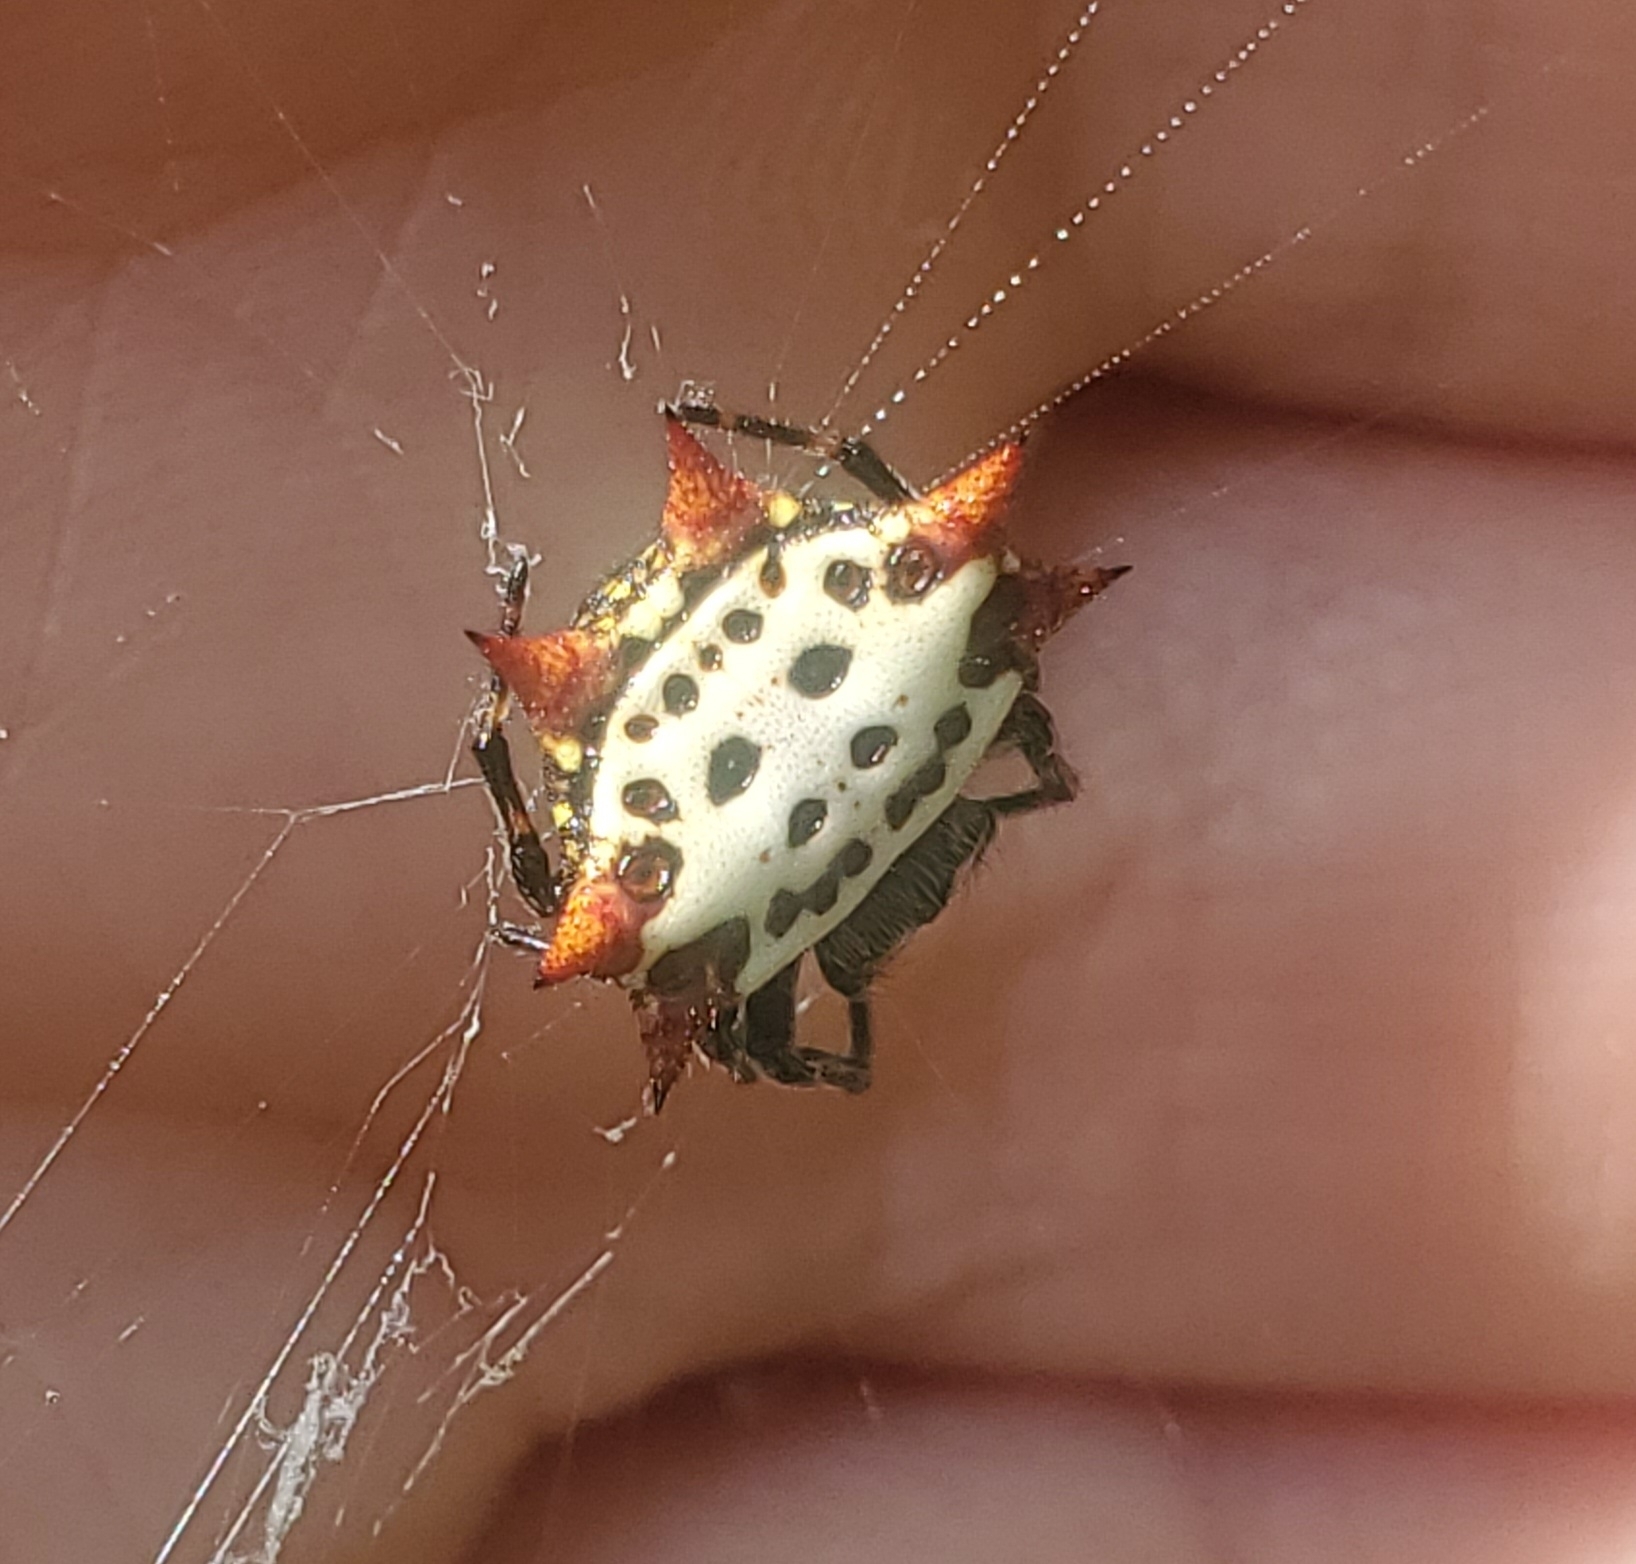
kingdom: Animalia
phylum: Arthropoda
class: Arachnida
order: Araneae
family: Araneidae
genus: Gasteracantha
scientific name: Gasteracantha cancriformis
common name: Orb weavers
